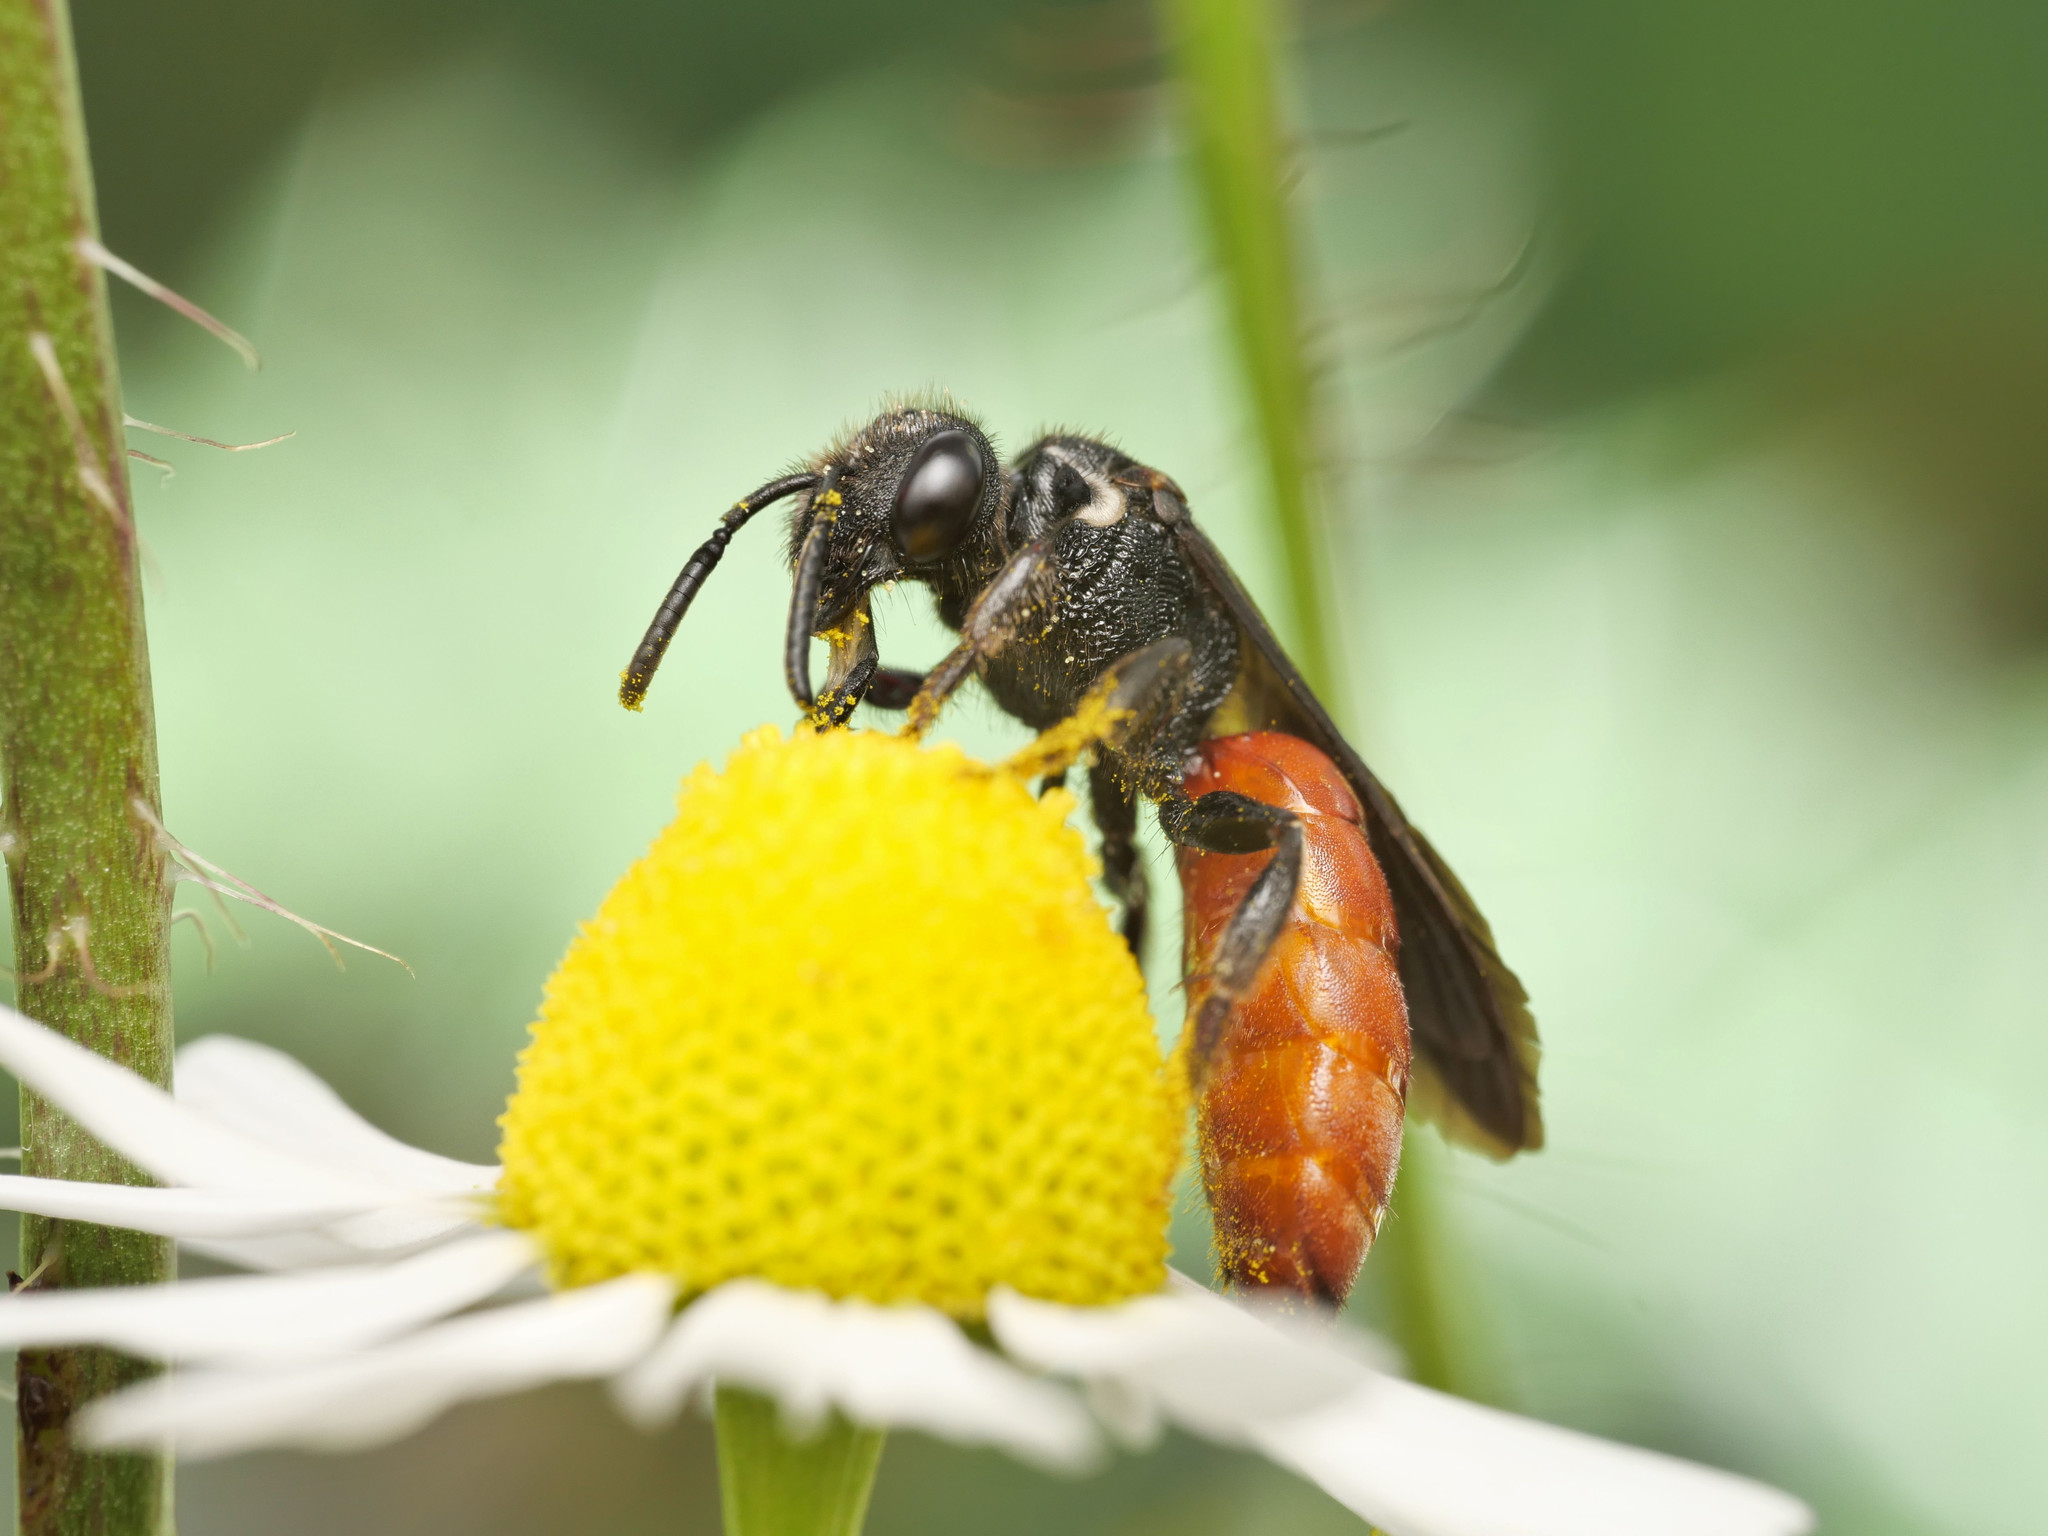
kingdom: Animalia
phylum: Arthropoda
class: Insecta
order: Hymenoptera
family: Halictidae
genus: Sphecodes
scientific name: Sphecodes albilabris
